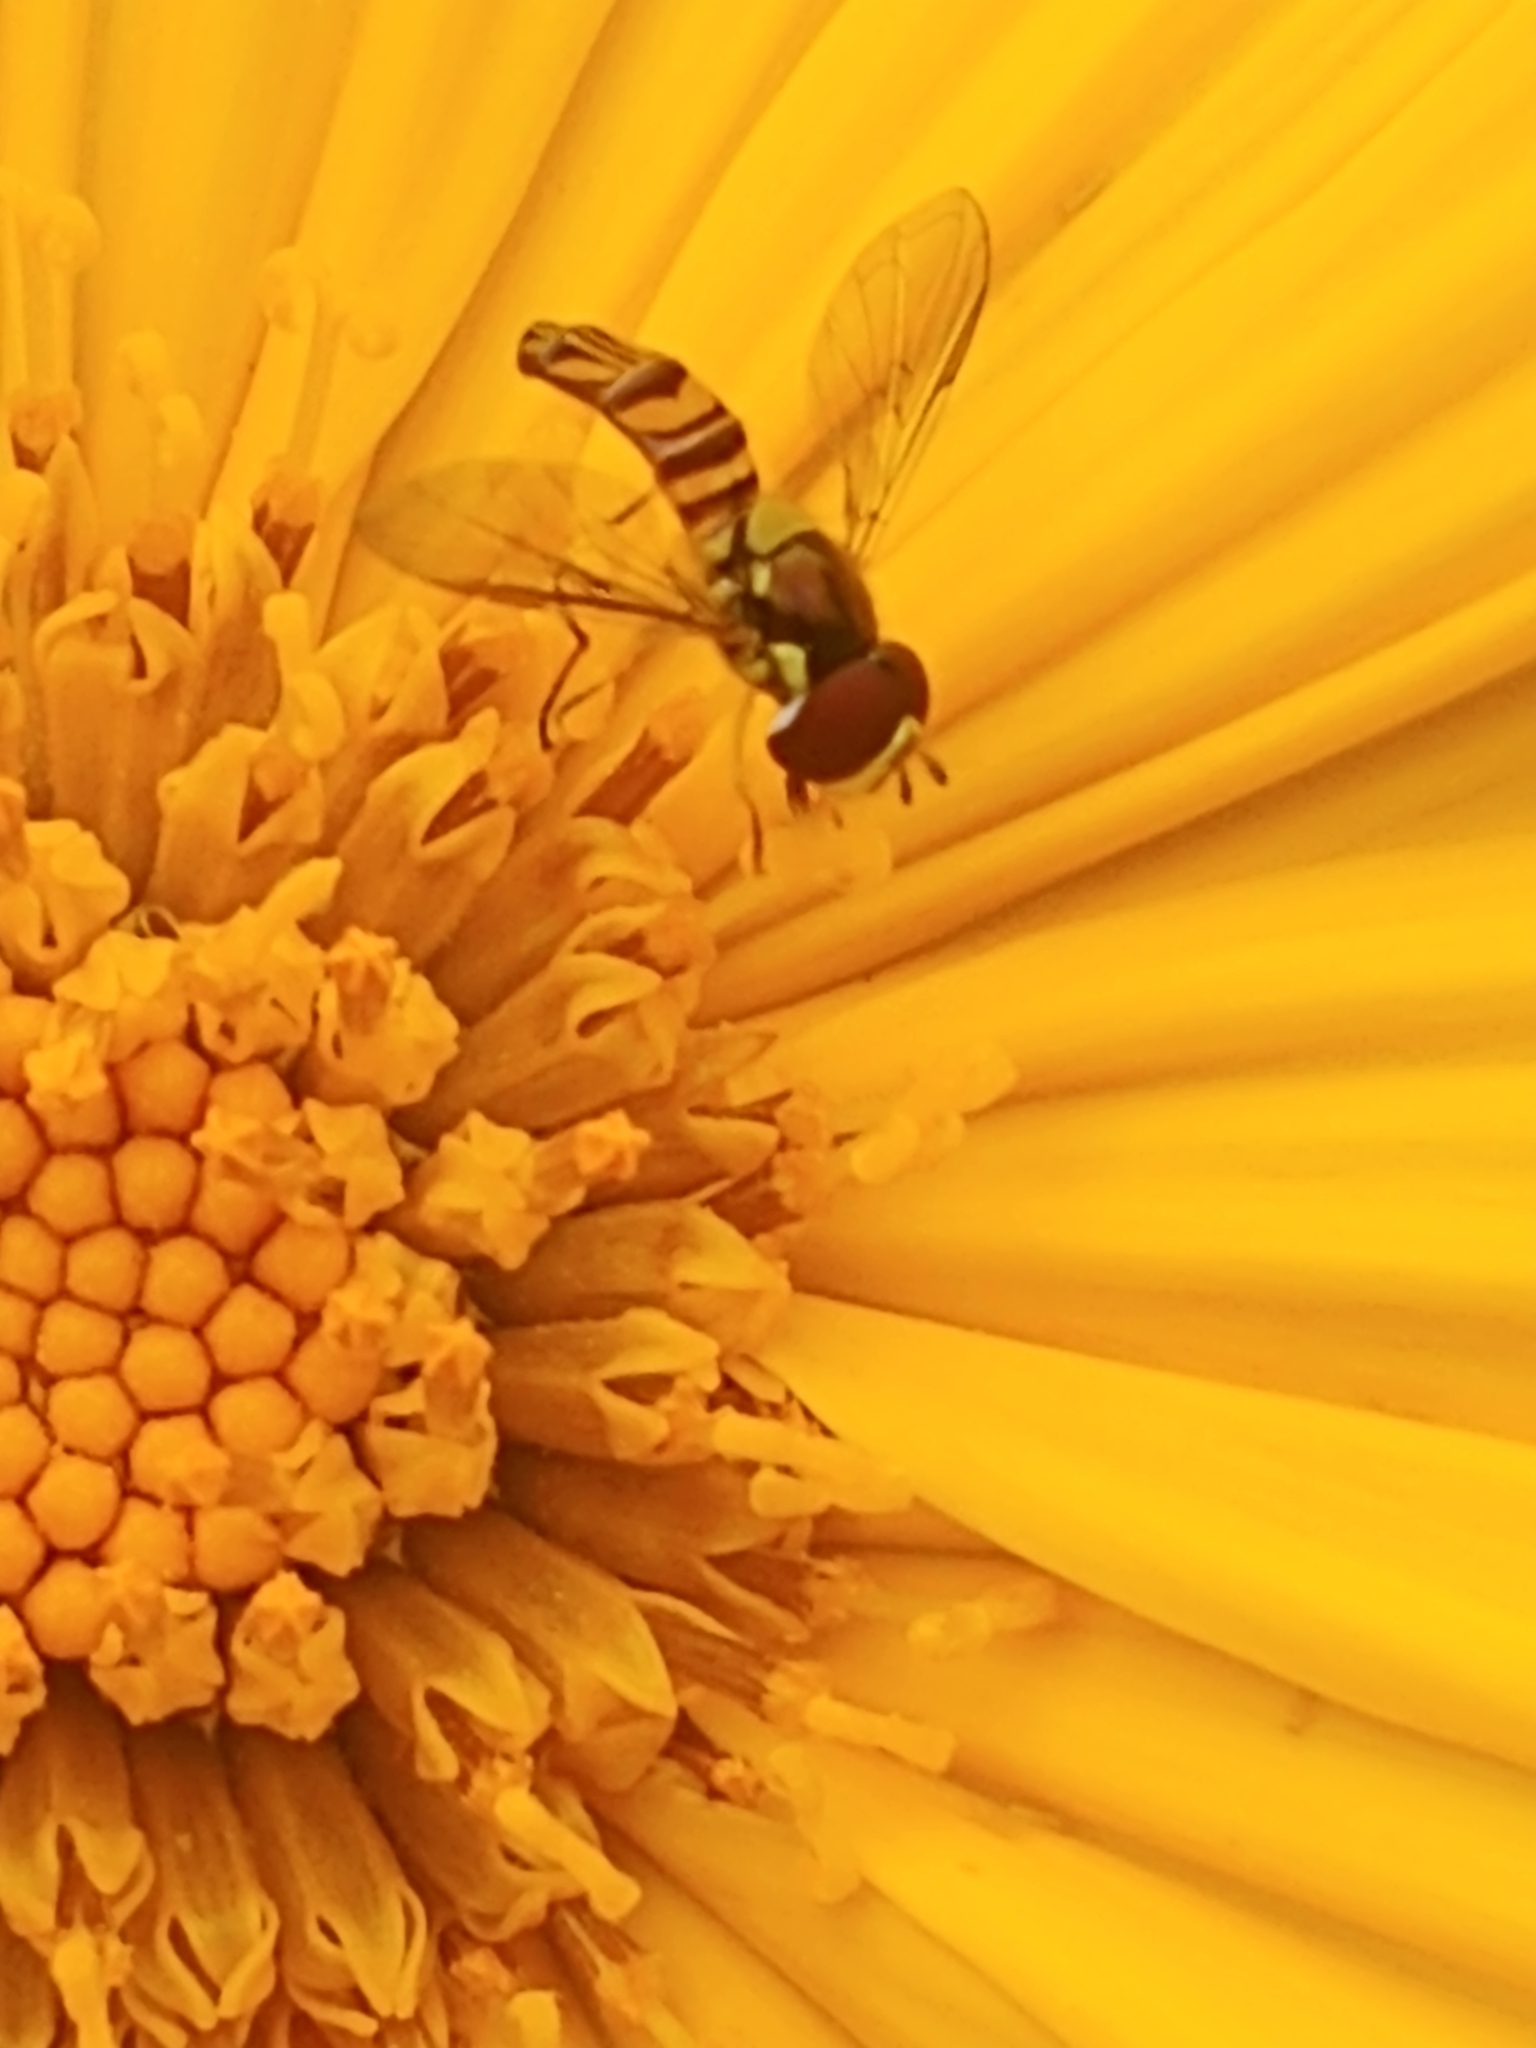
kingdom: Animalia
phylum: Arthropoda
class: Insecta
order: Diptera
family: Syrphidae
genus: Allograpta
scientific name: Allograpta obliqua
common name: Common oblique syrphid
